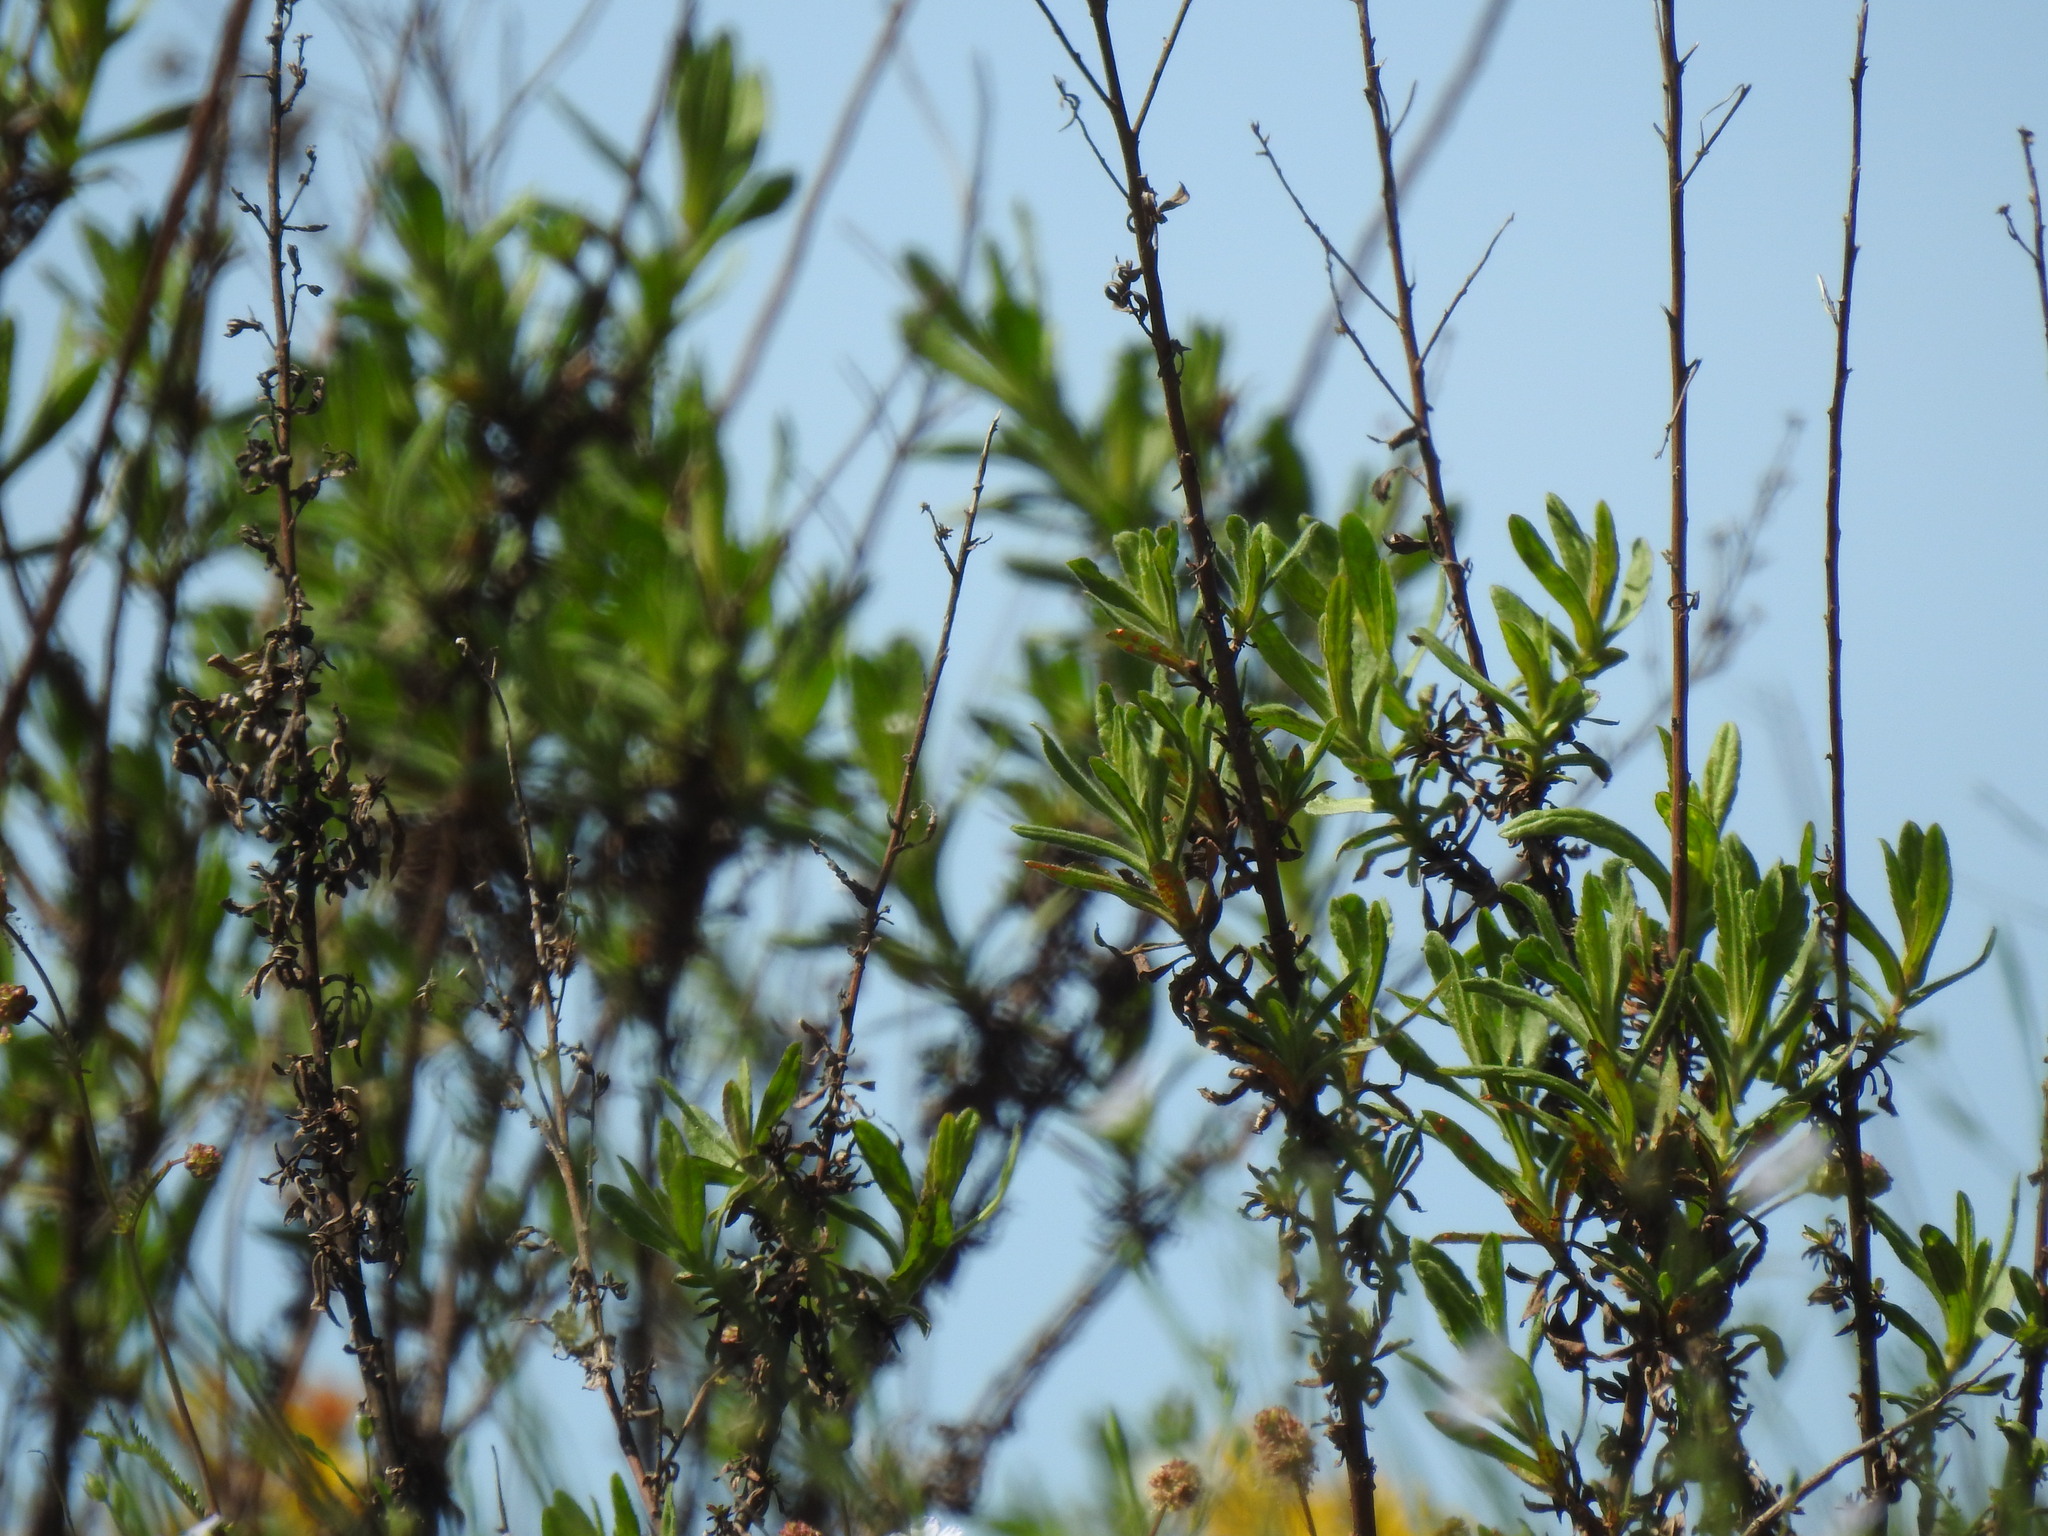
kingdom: Plantae
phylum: Tracheophyta
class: Magnoliopsida
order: Asterales
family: Asteraceae
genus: Dittrichia
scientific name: Dittrichia viscosa
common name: Woody fleabane
